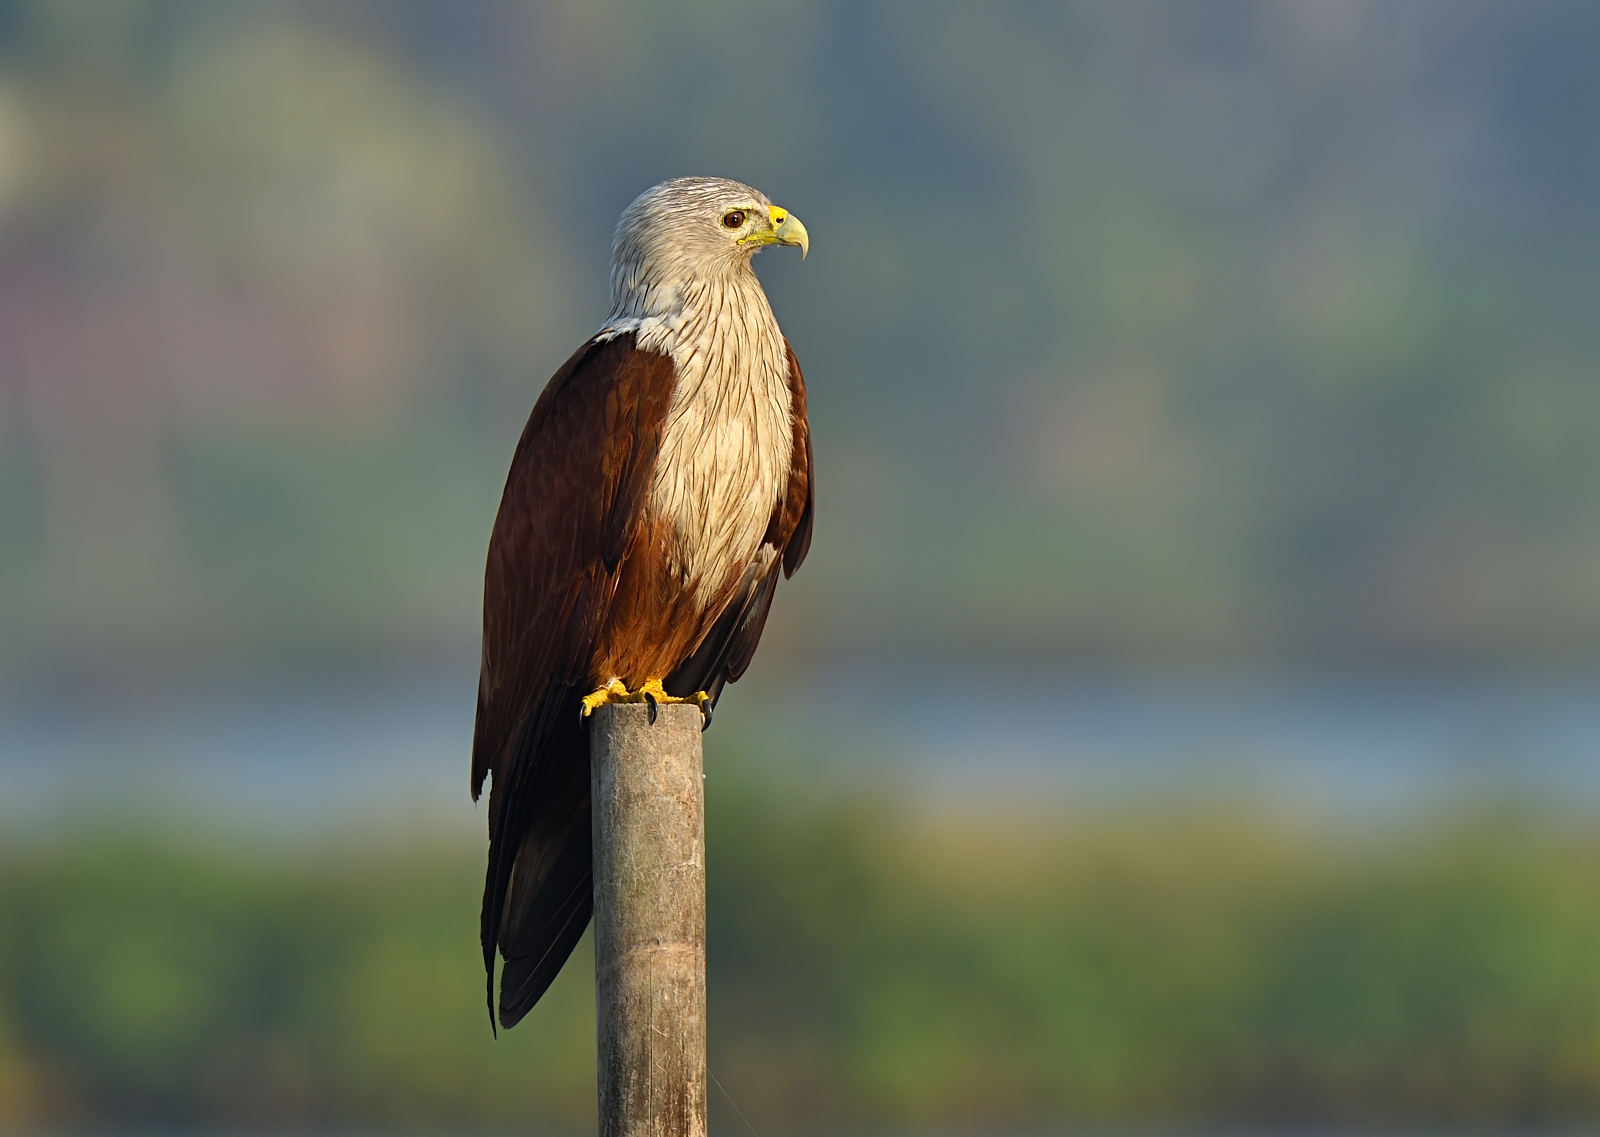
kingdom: Animalia
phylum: Chordata
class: Aves
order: Accipitriformes
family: Accipitridae
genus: Haliastur
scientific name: Haliastur indus
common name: Brahminy kite
